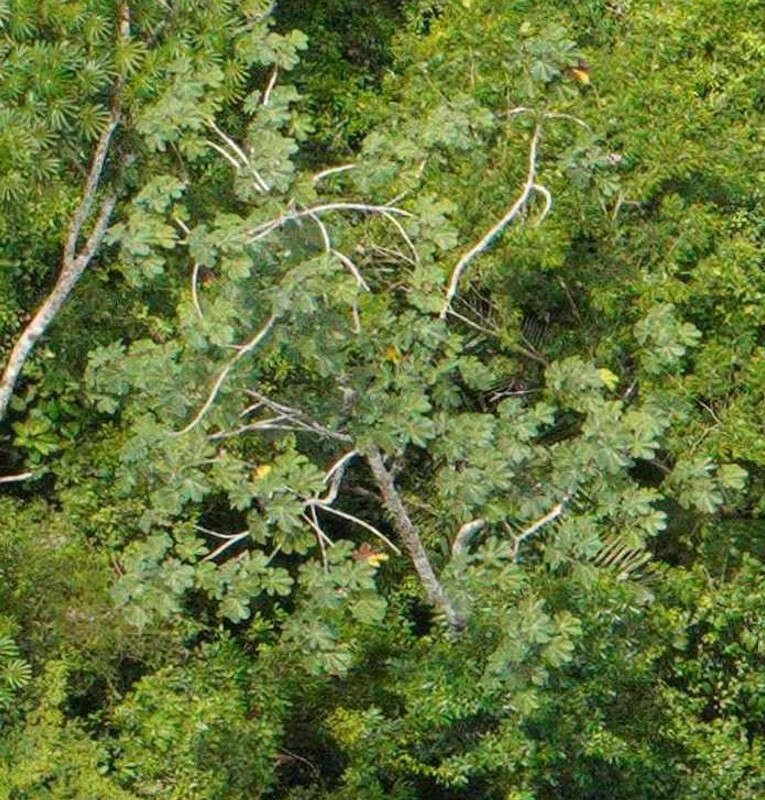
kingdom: Plantae
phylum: Tracheophyta
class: Magnoliopsida
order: Rosales
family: Urticaceae
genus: Cecropia
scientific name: Cecropia obtusa
